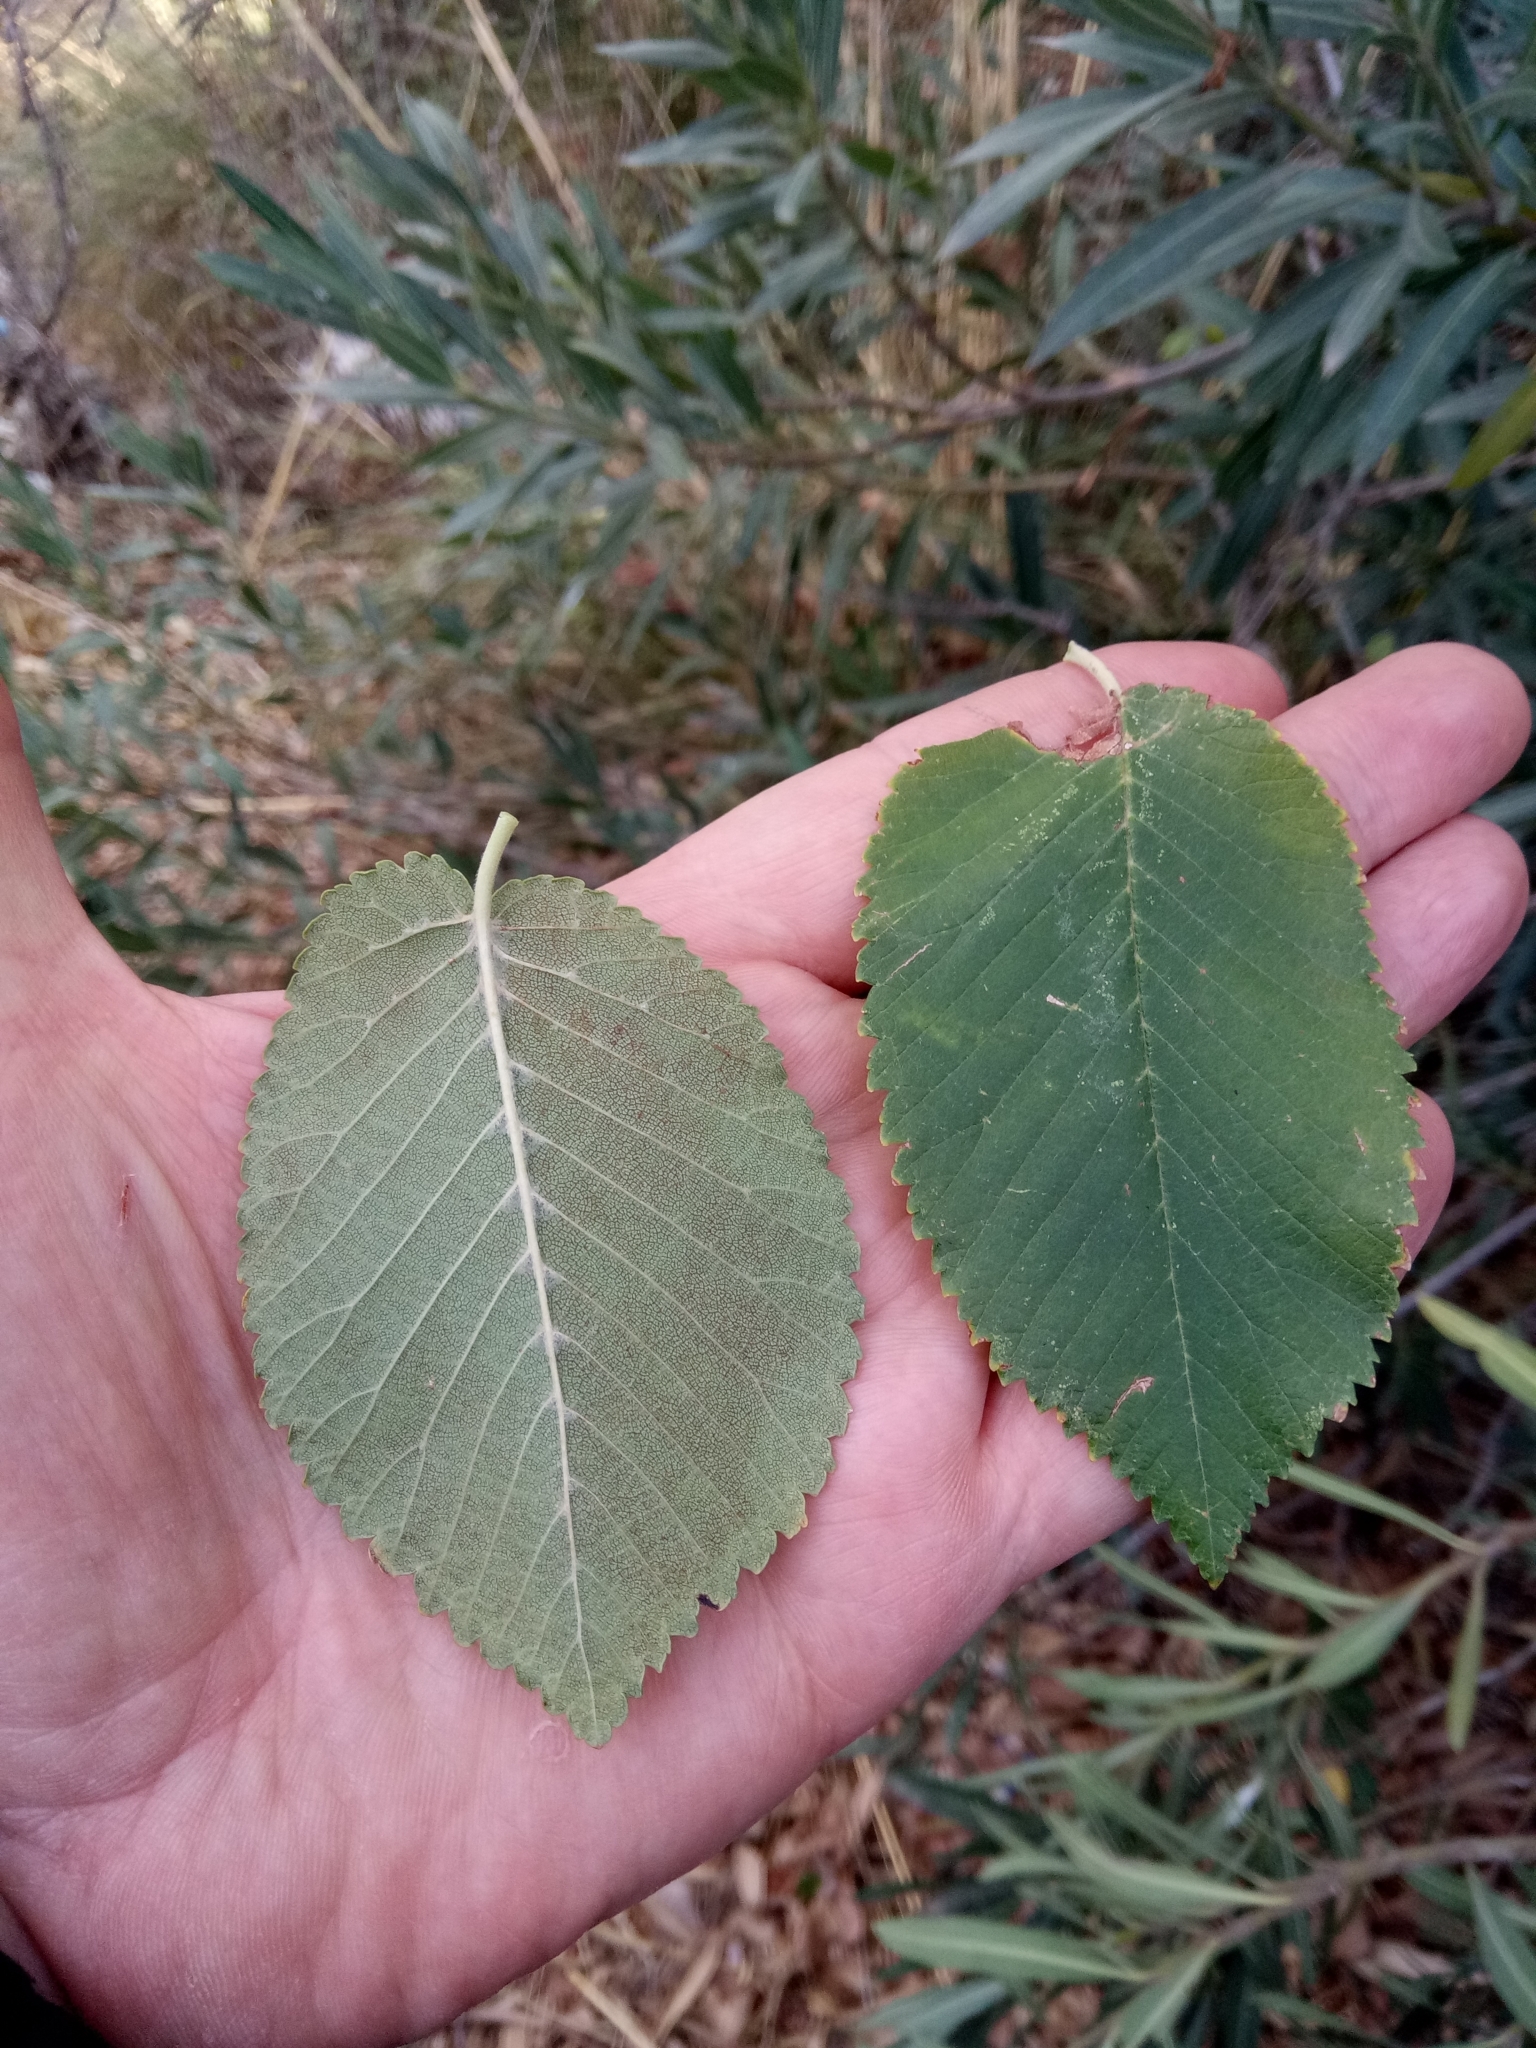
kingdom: Plantae
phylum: Tracheophyta
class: Magnoliopsida
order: Rosales
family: Ulmaceae
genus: Ulmus
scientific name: Ulmus minor
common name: Small-leaved elm
